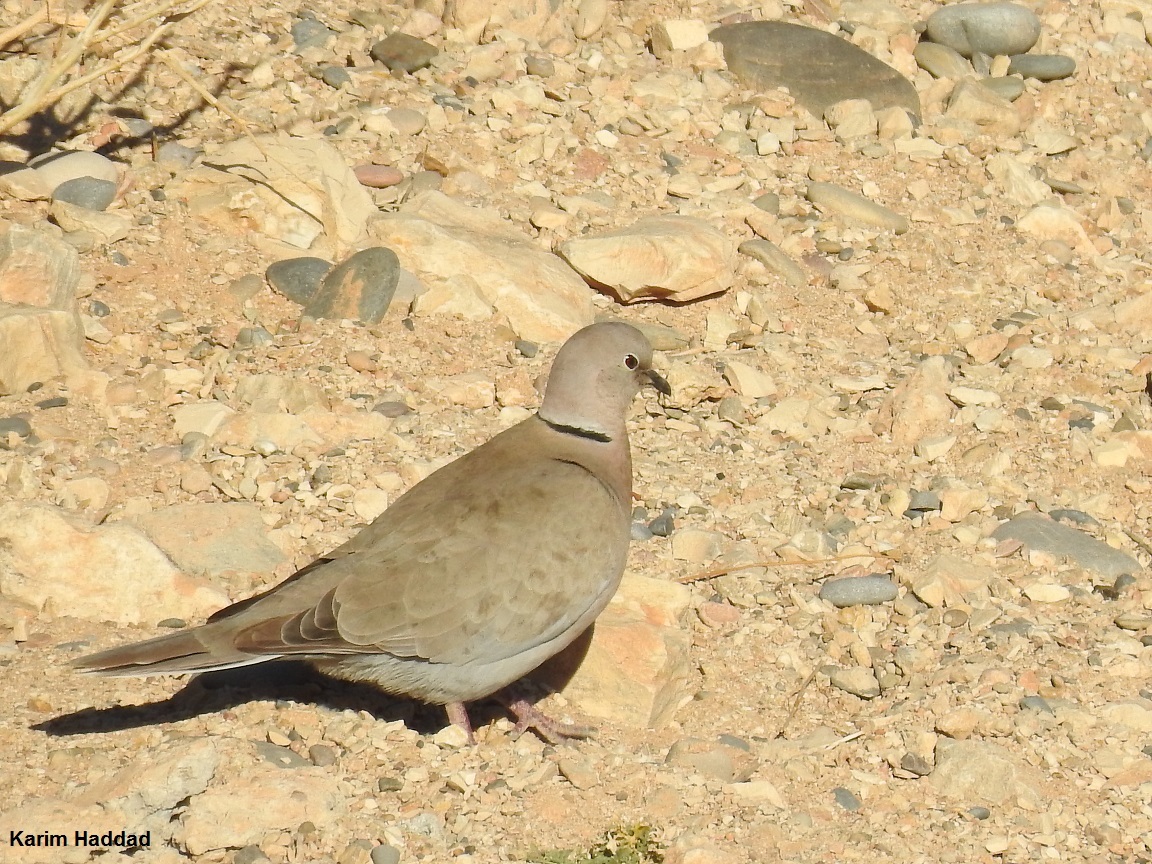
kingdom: Animalia
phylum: Chordata
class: Aves
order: Columbiformes
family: Columbidae
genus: Streptopelia
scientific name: Streptopelia decaocto
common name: Eurasian collared dove
